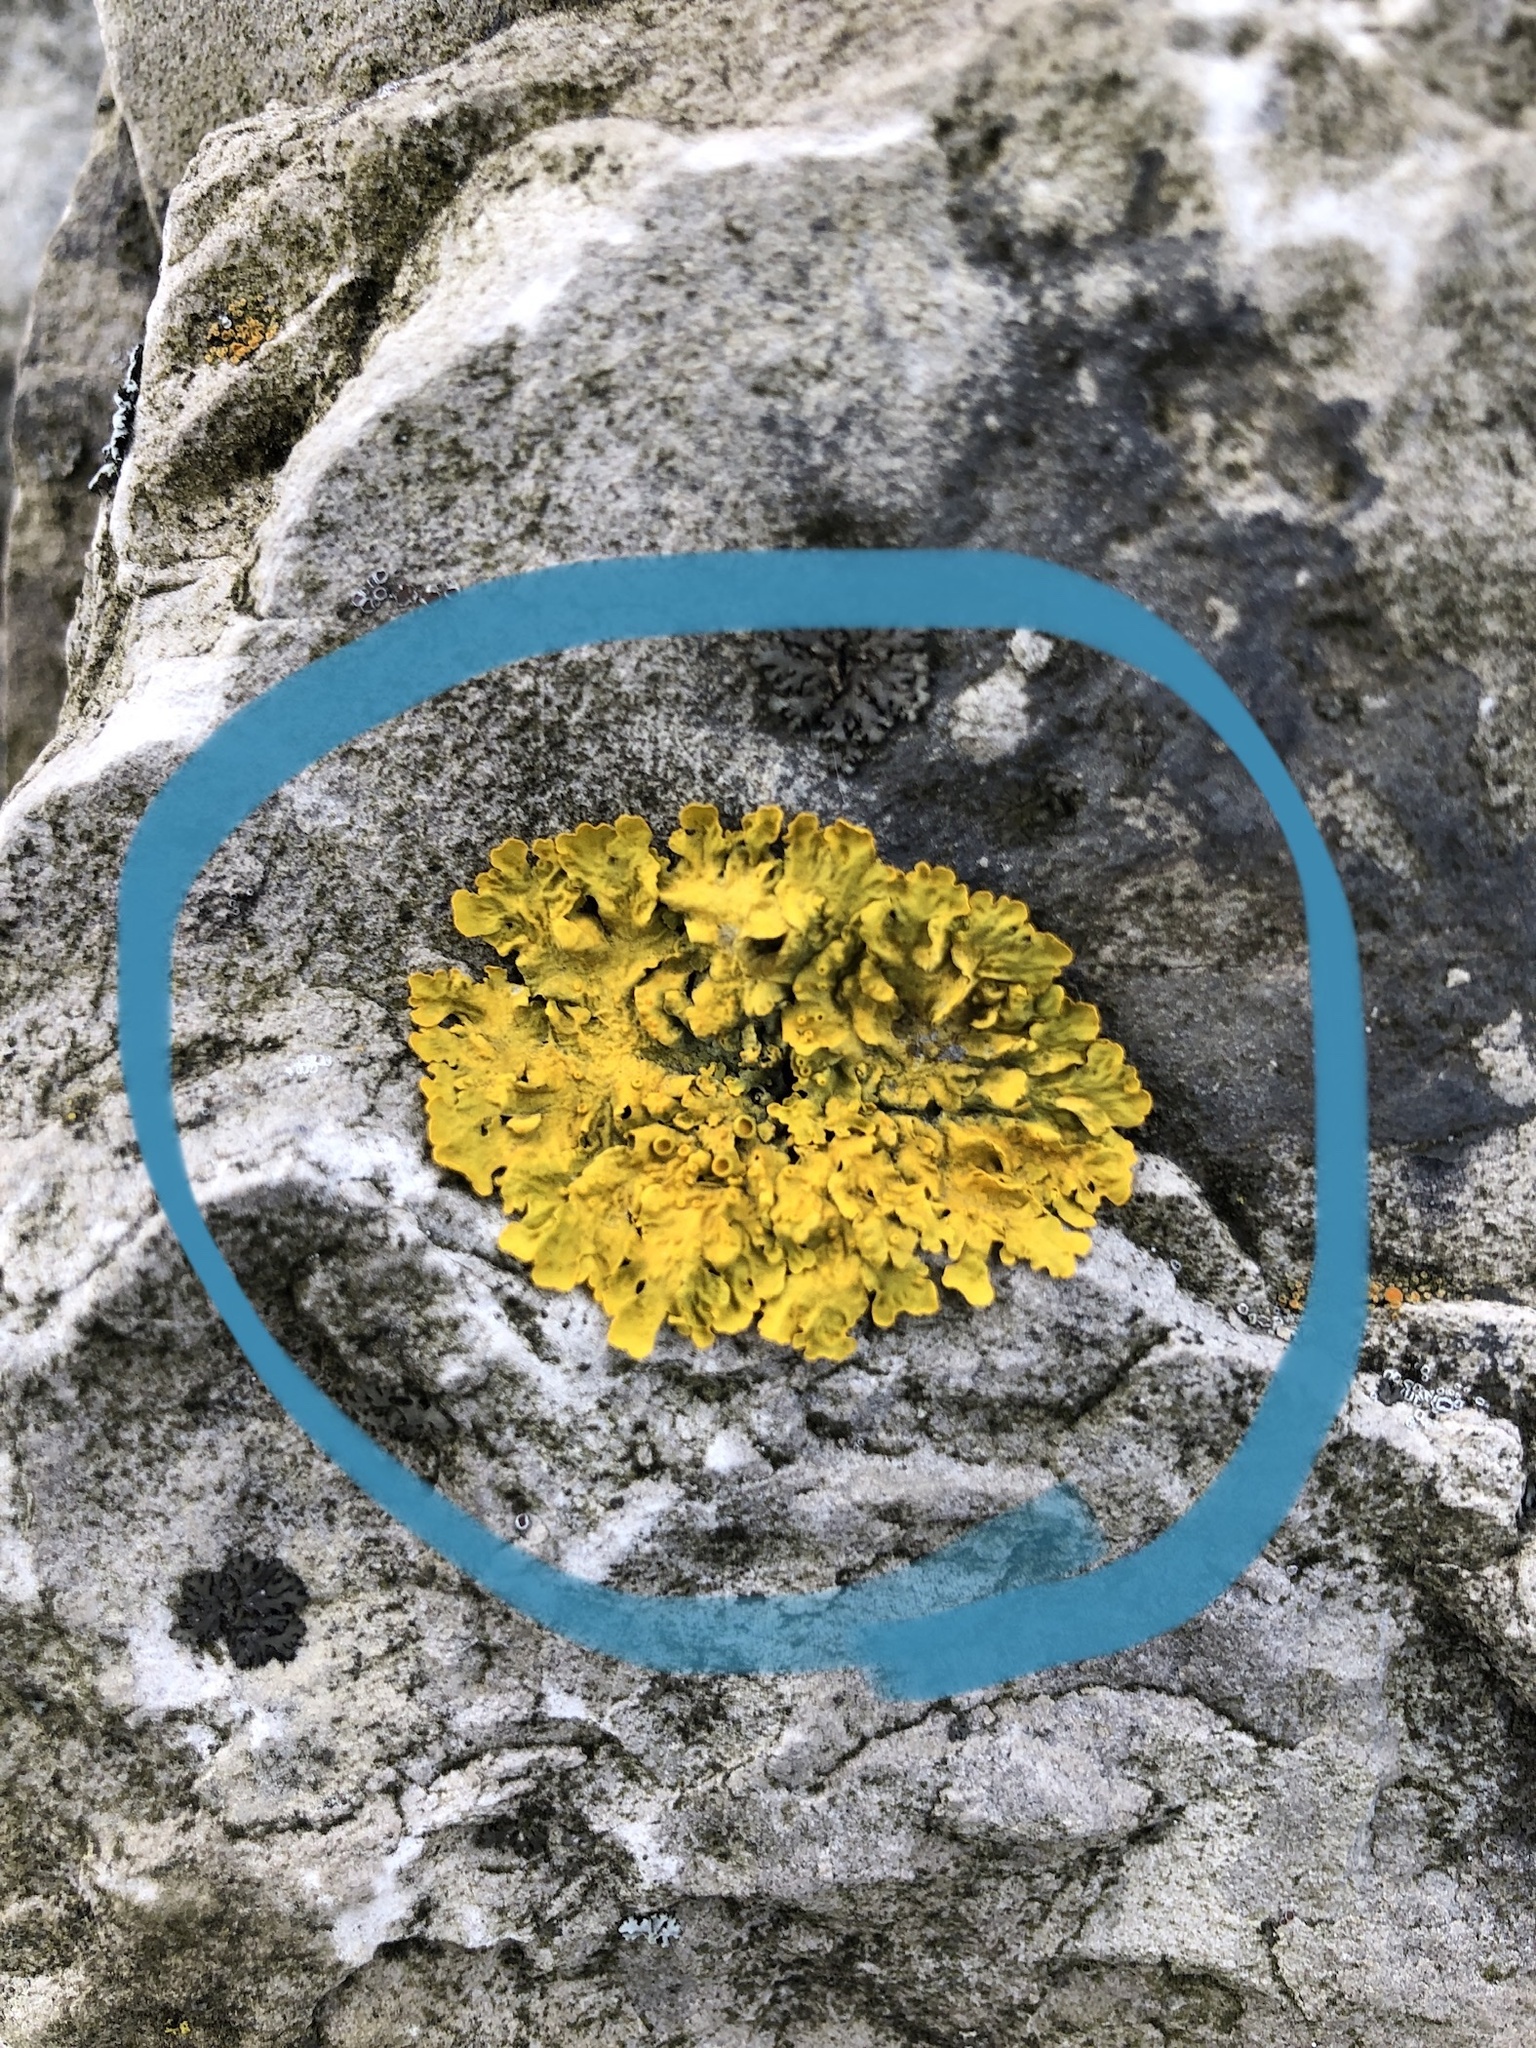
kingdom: Fungi
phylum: Ascomycota
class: Lecanoromycetes
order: Teloschistales
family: Teloschistaceae
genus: Xanthoria
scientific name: Xanthoria parietina
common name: Common orange lichen
